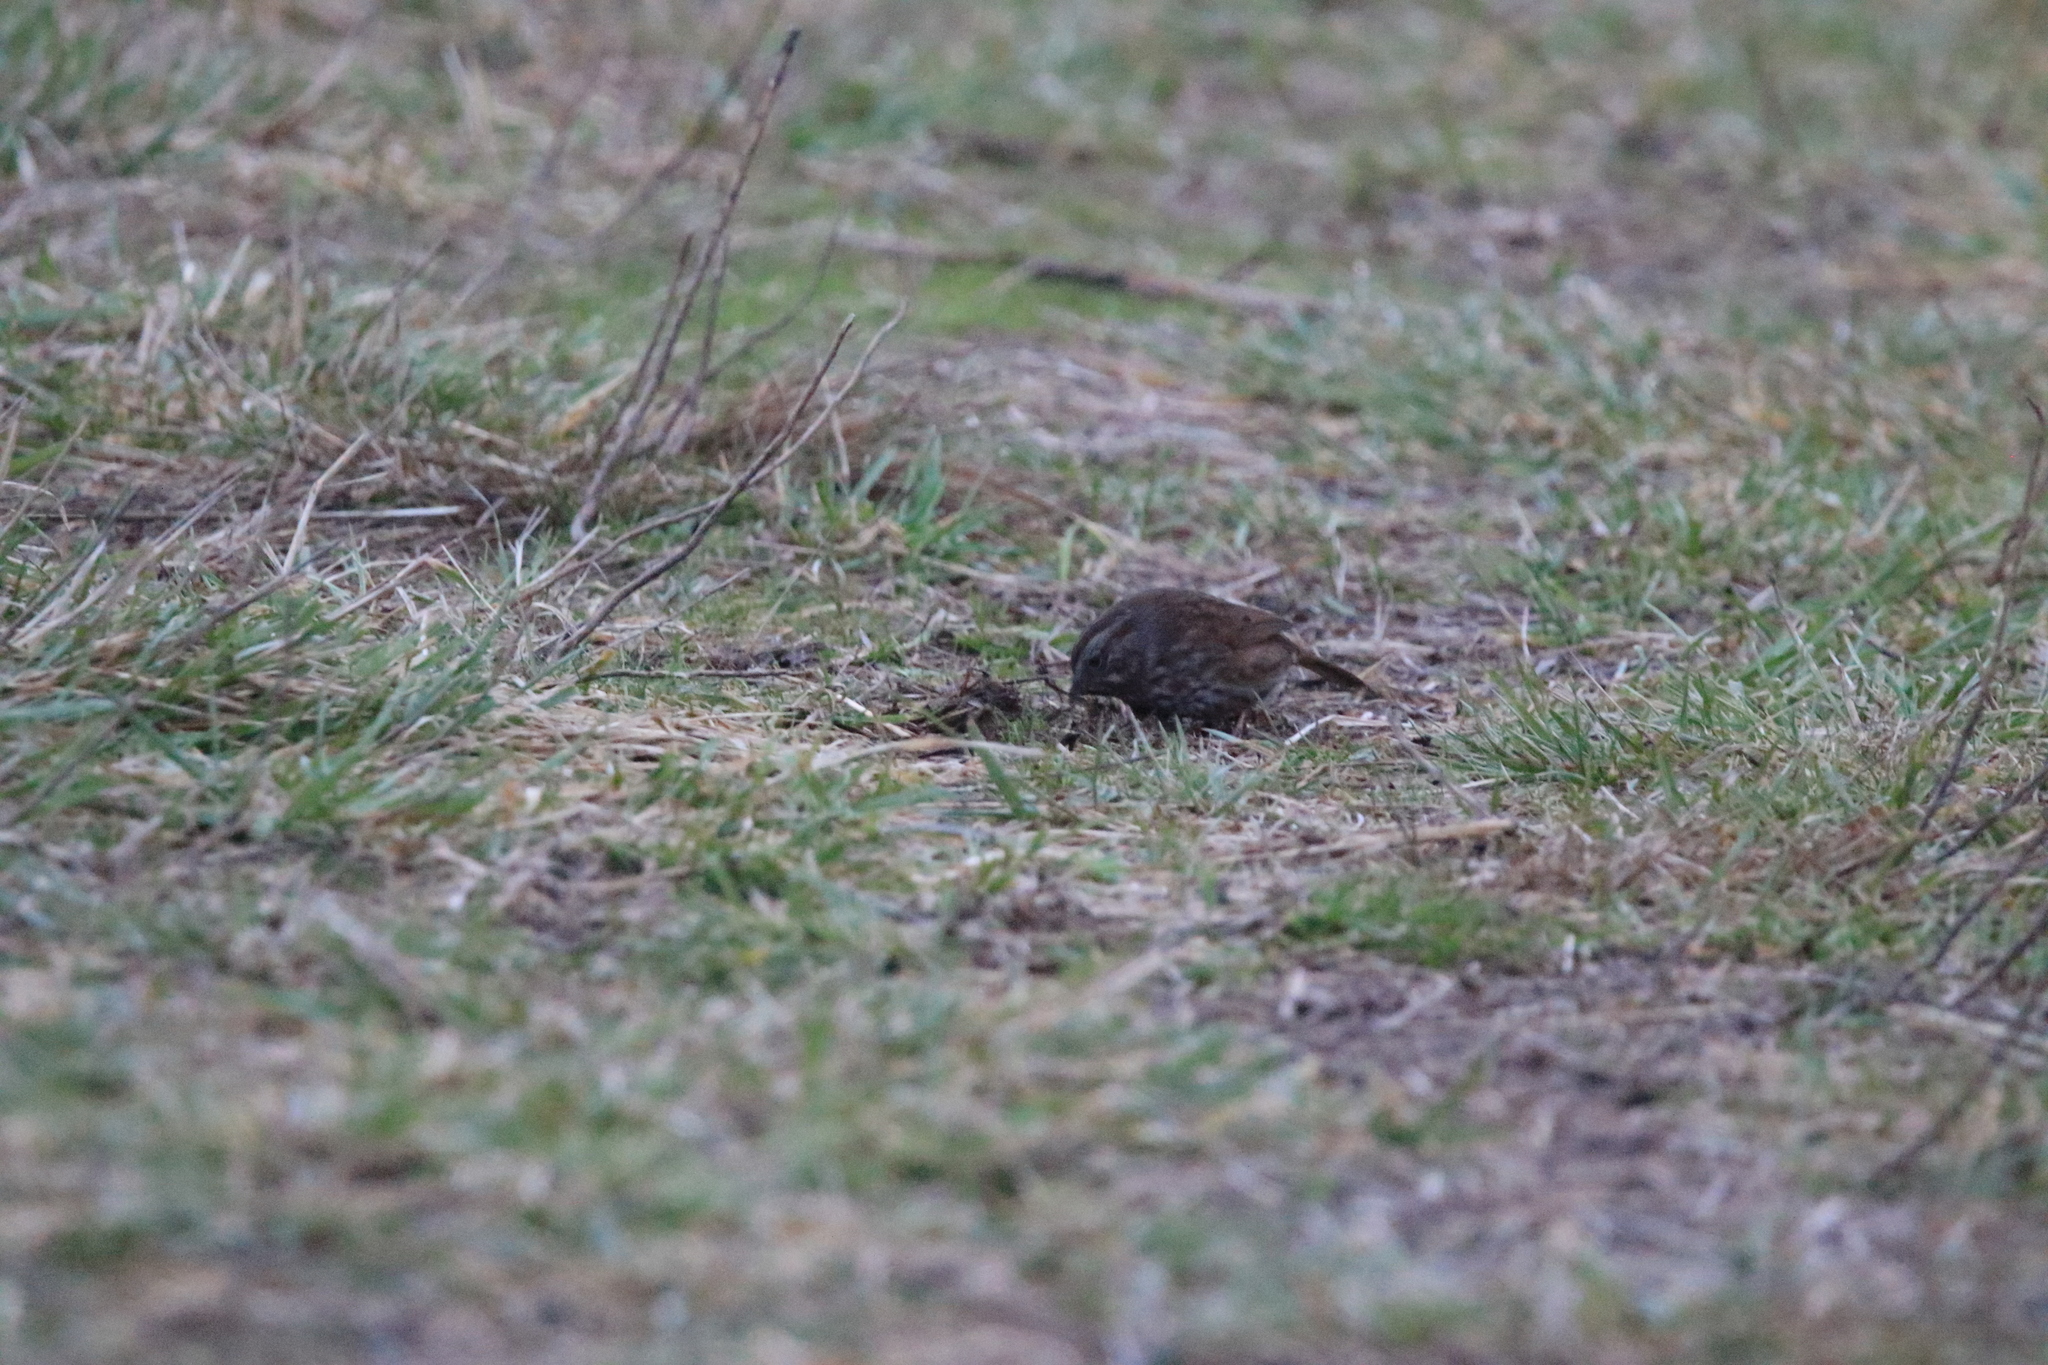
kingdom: Animalia
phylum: Chordata
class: Aves
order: Passeriformes
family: Passerellidae
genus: Melospiza
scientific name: Melospiza melodia
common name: Song sparrow
